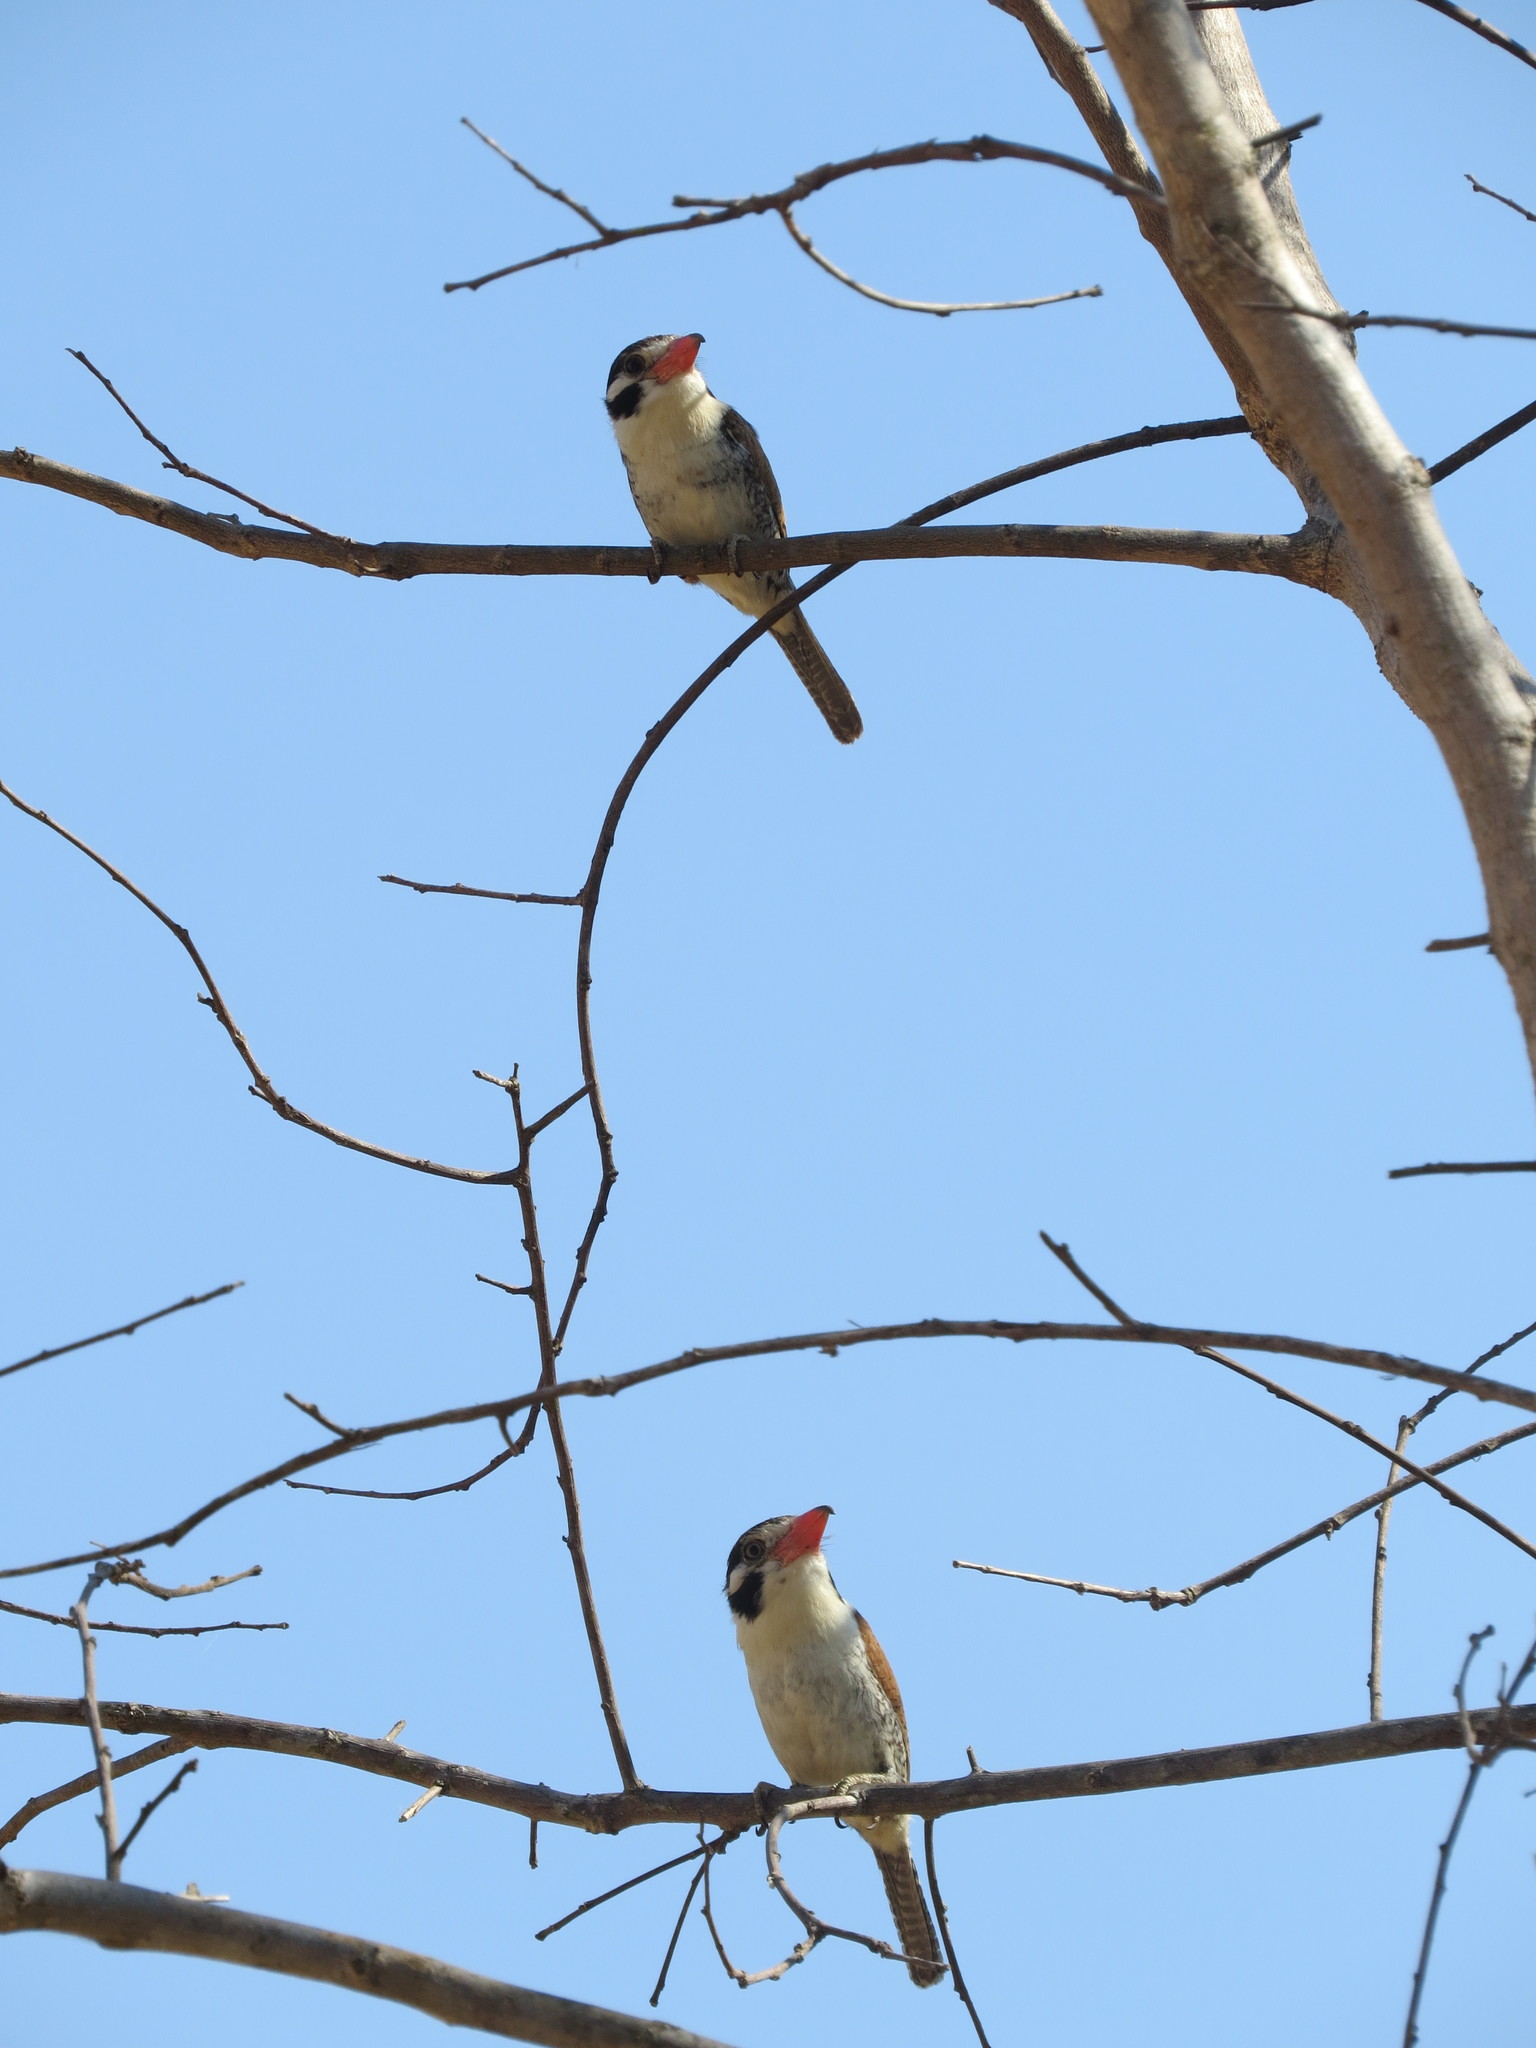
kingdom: Animalia
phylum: Chordata
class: Aves
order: Piciformes
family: Bucconidae
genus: Nystalus
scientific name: Nystalus chacuru
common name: White-eared puffbird
